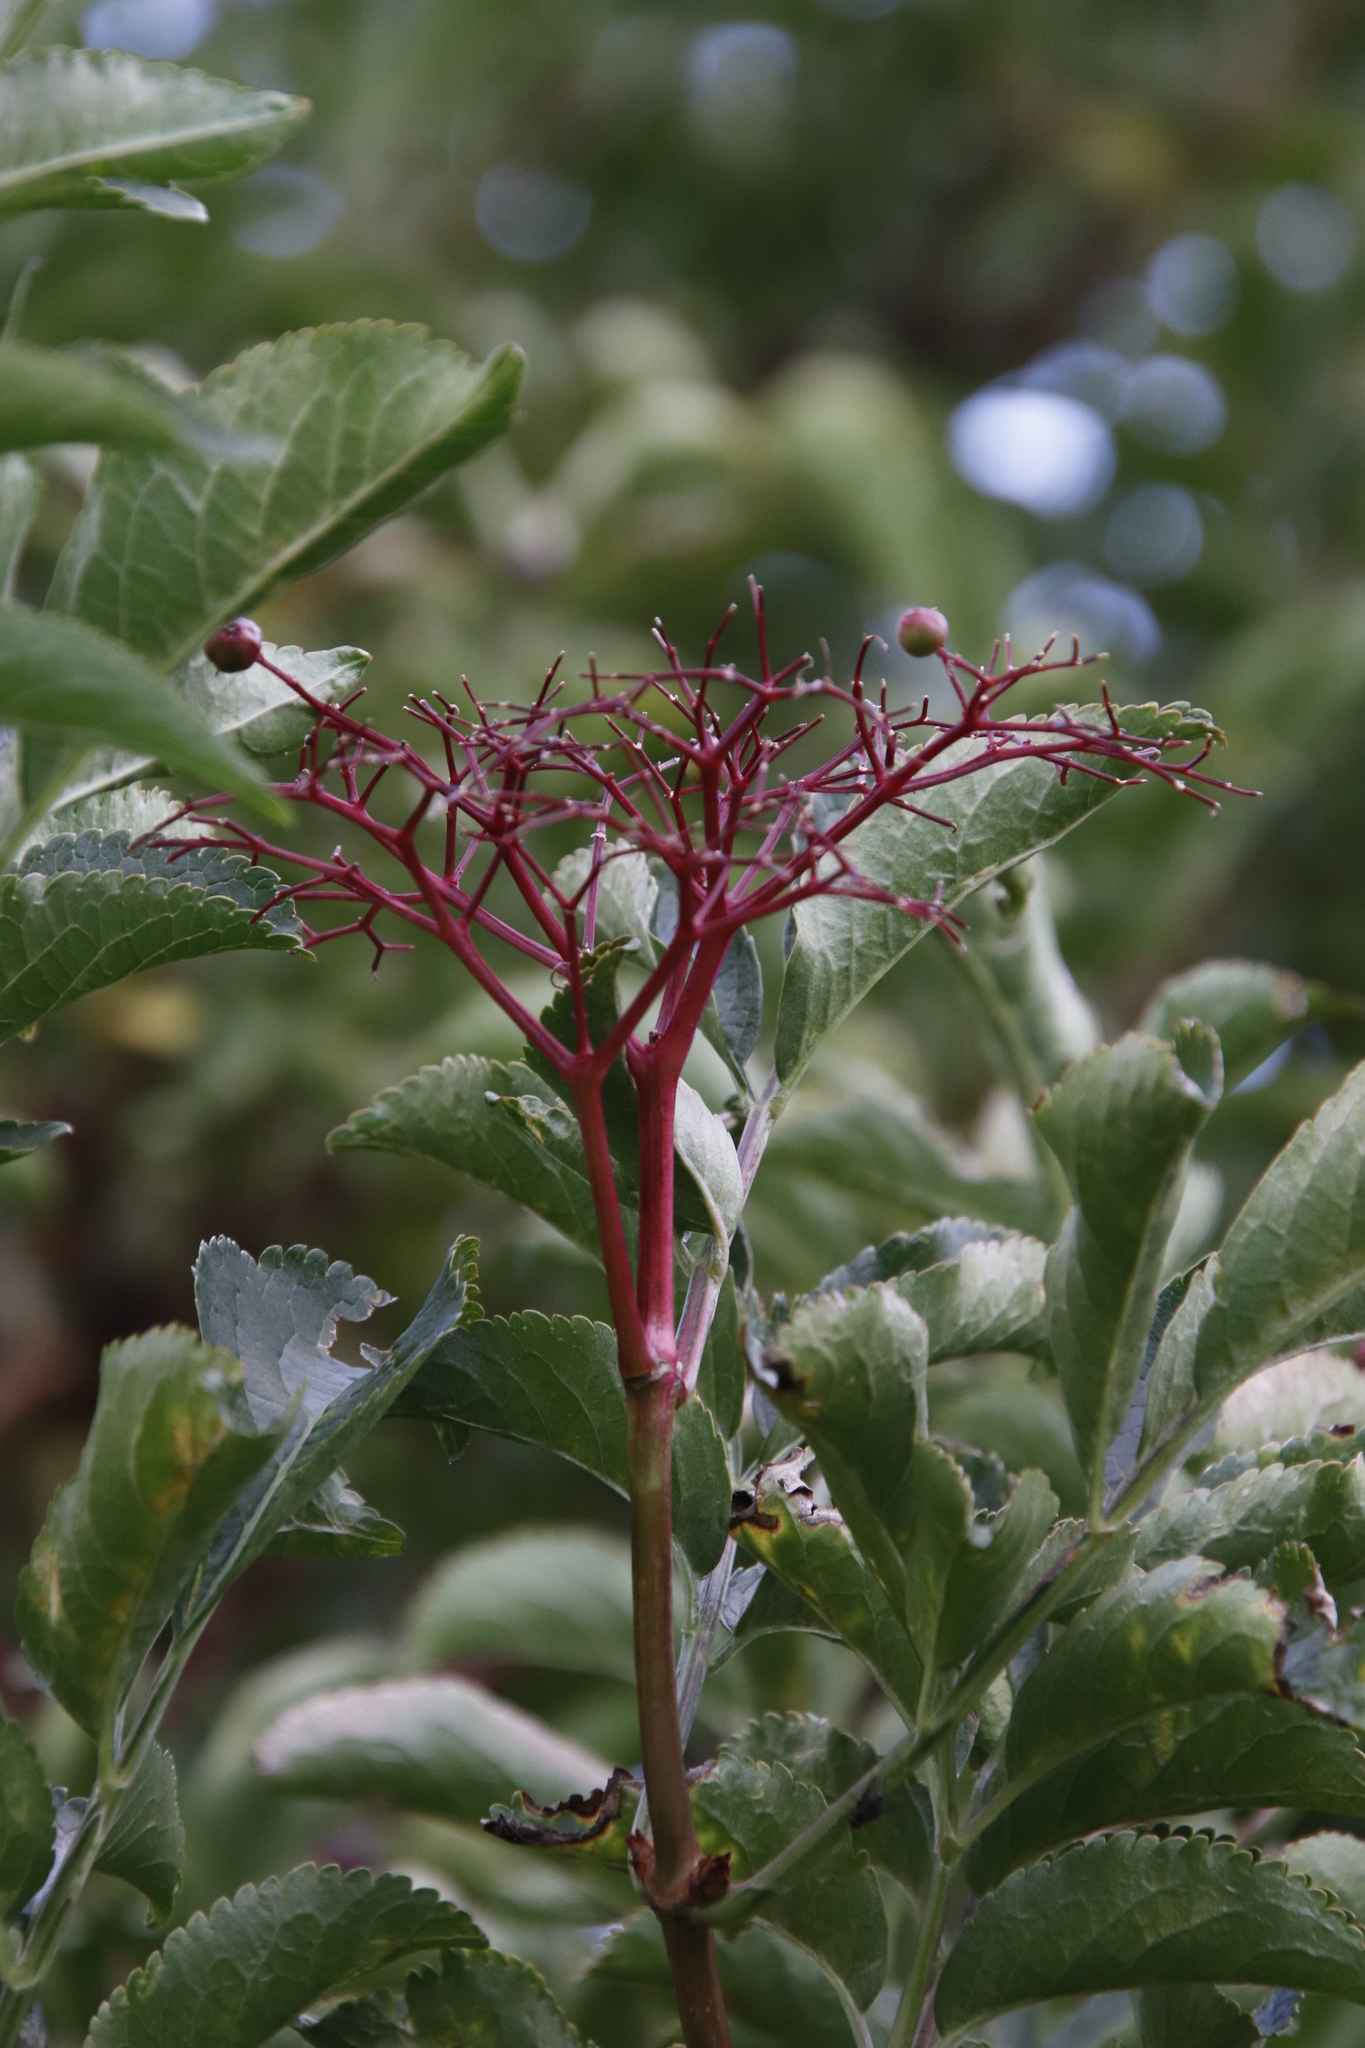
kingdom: Plantae
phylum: Tracheophyta
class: Magnoliopsida
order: Dipsacales
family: Viburnaceae
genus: Sambucus
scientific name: Sambucus nigra
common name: Elder
